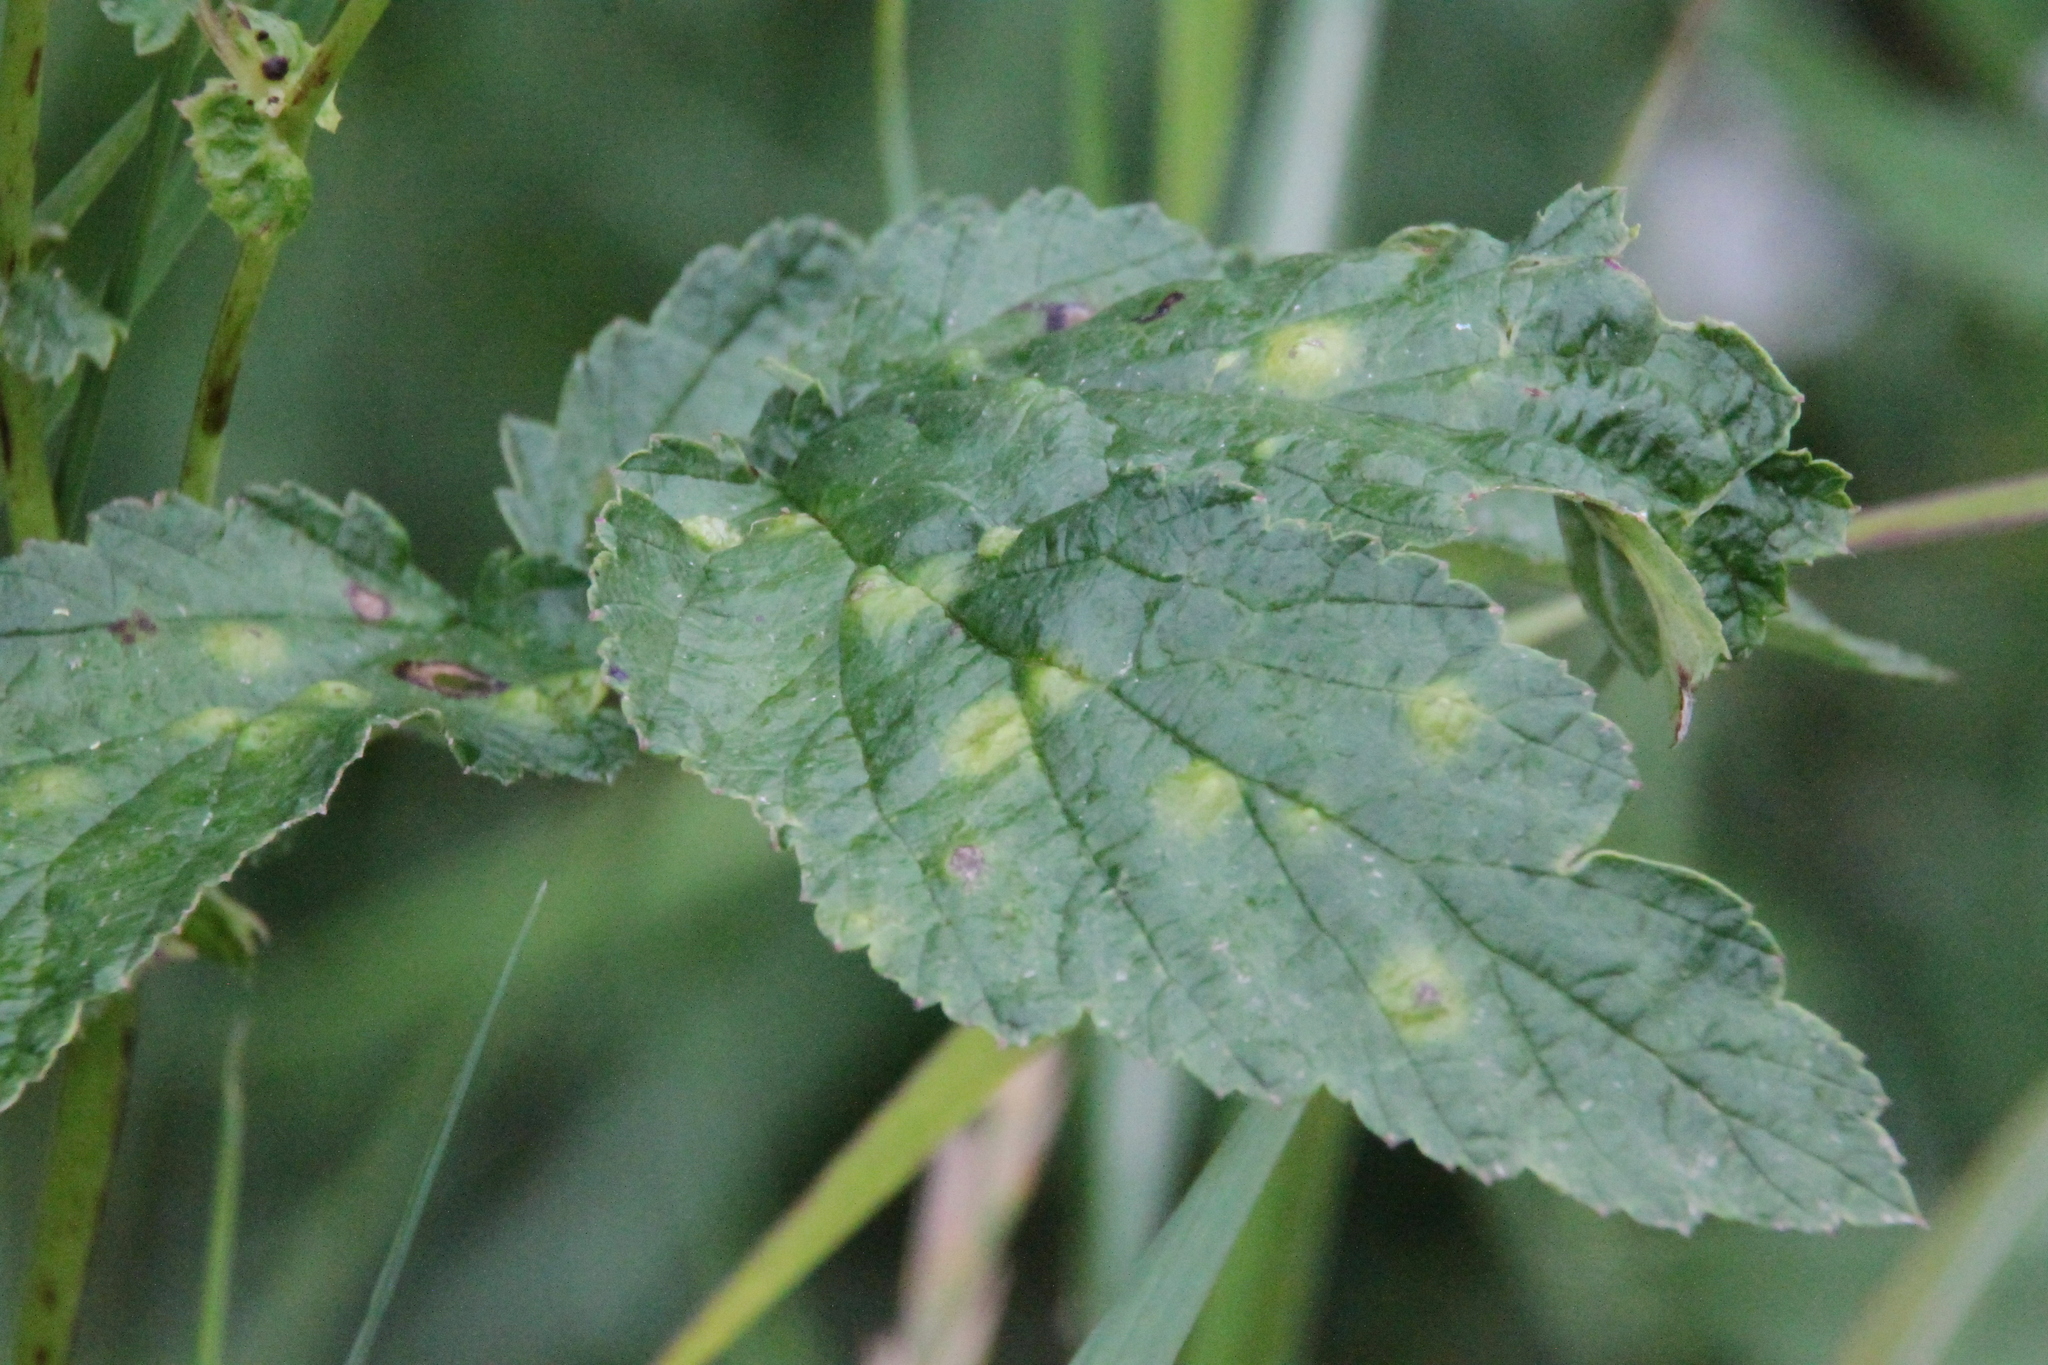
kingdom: Plantae
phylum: Tracheophyta
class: Magnoliopsida
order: Rosales
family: Rosaceae
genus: Filipendula
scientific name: Filipendula ulmaria
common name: Meadowsweet
